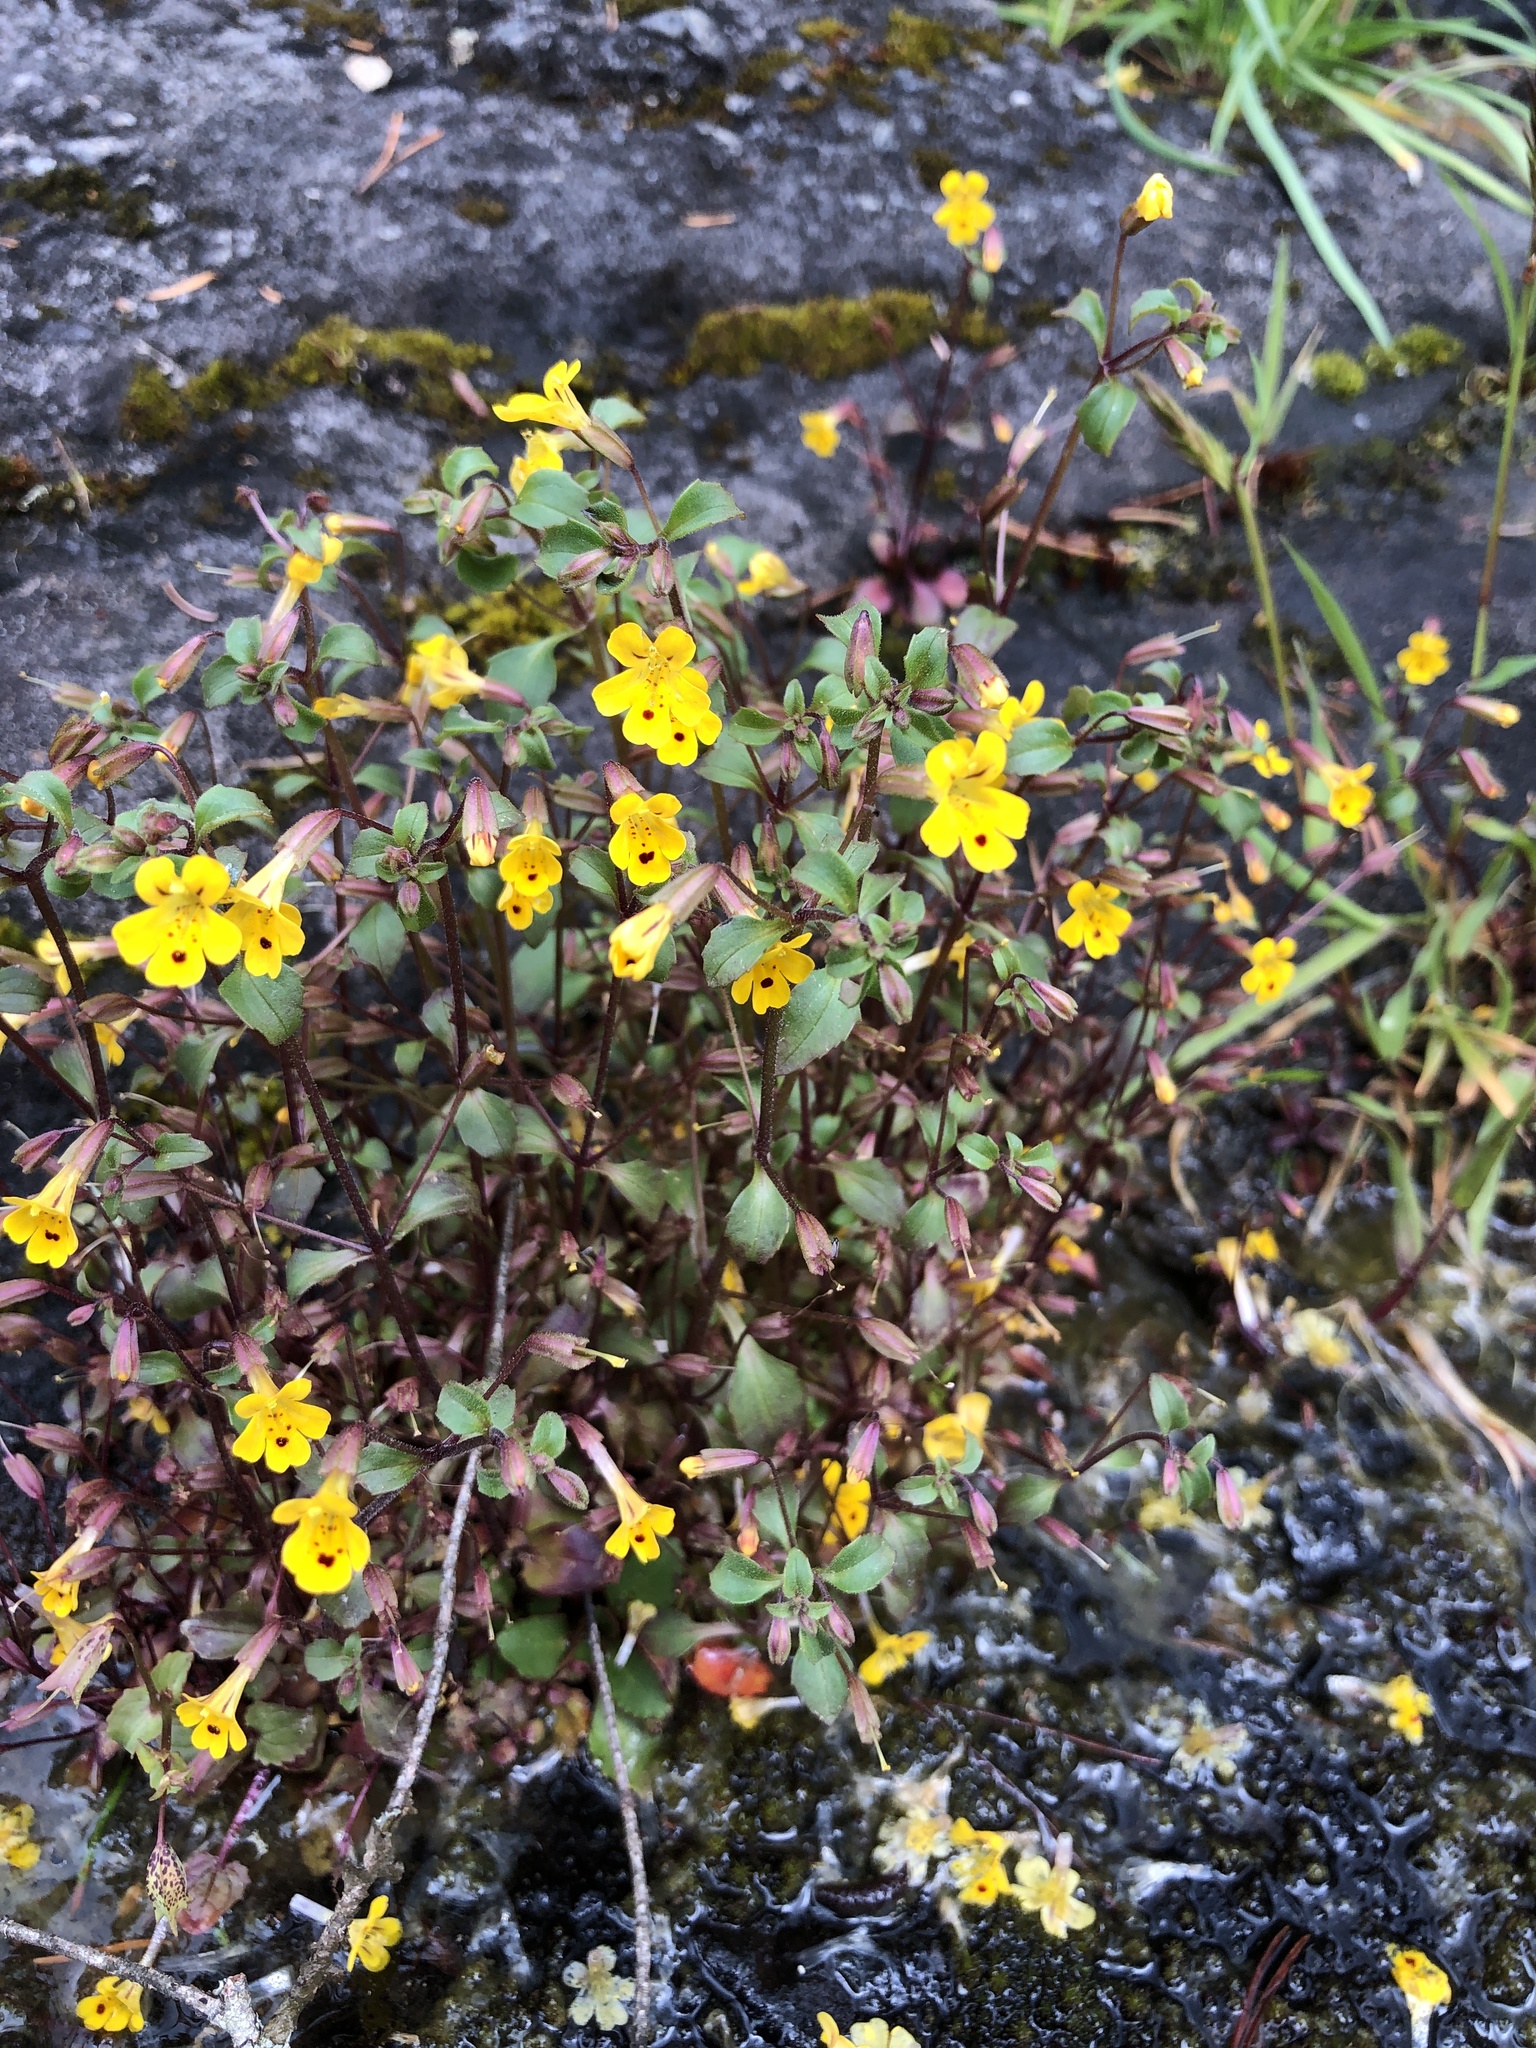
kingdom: Plantae
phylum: Tracheophyta
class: Magnoliopsida
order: Lamiales
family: Phrymaceae
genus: Erythranthe
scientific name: Erythranthe alsinoides
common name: Chickweed monkeyflower
